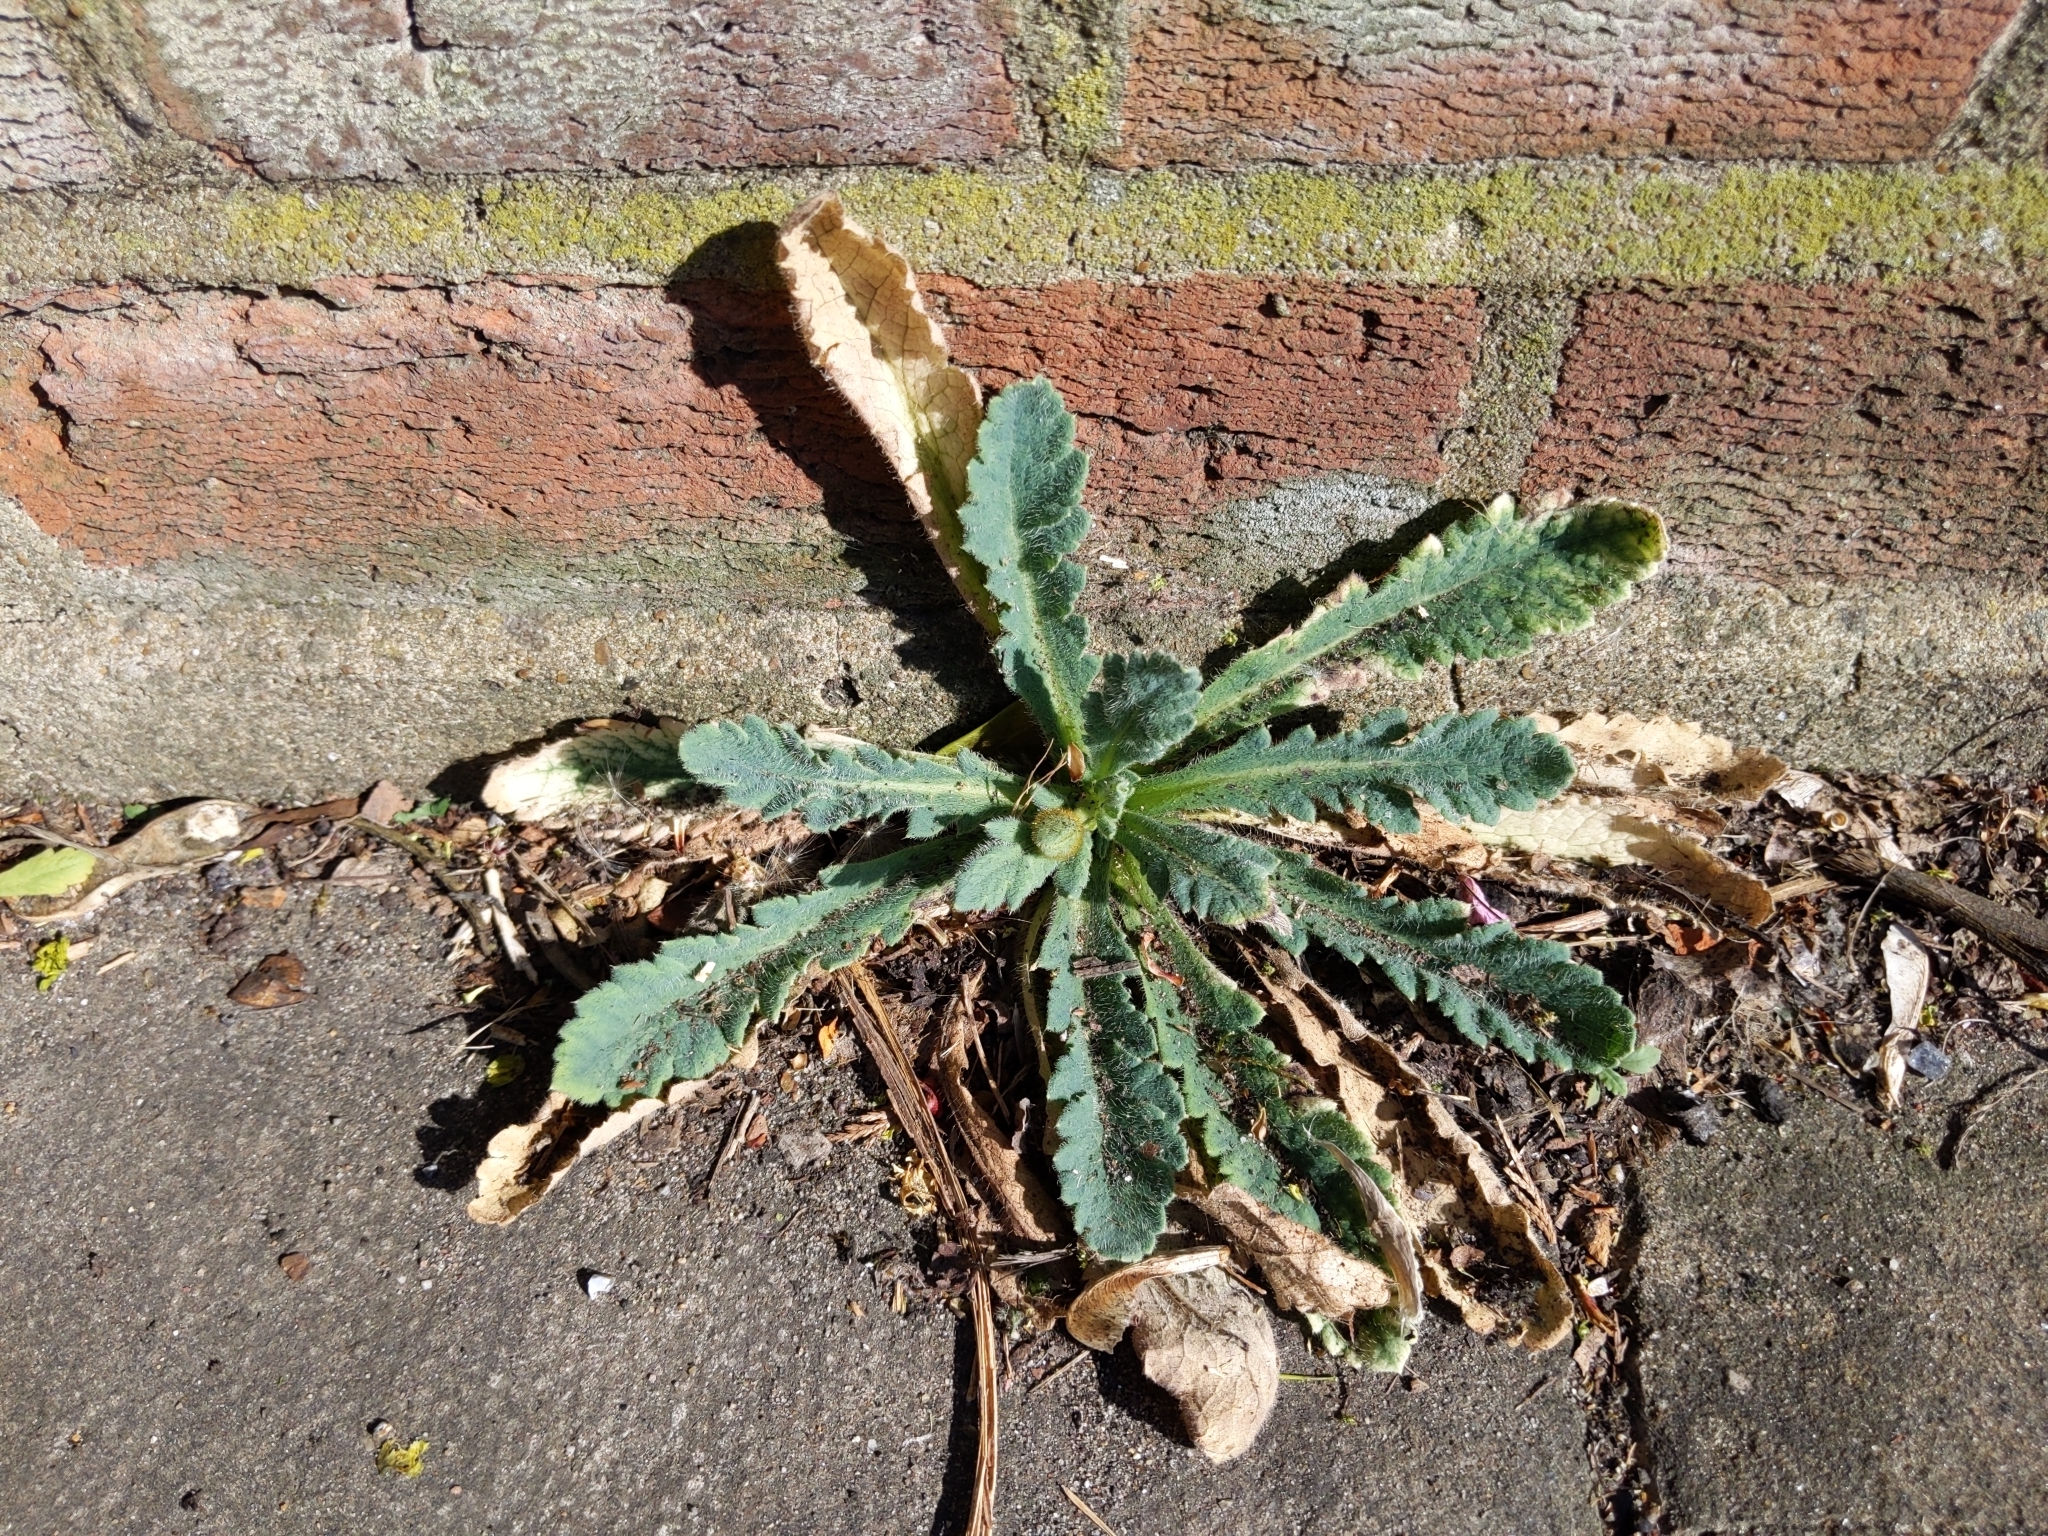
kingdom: Plantae
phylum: Tracheophyta
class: Magnoliopsida
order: Ranunculales
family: Papaveraceae
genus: Papaver
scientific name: Papaver atlanticum
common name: Atlas poppy
